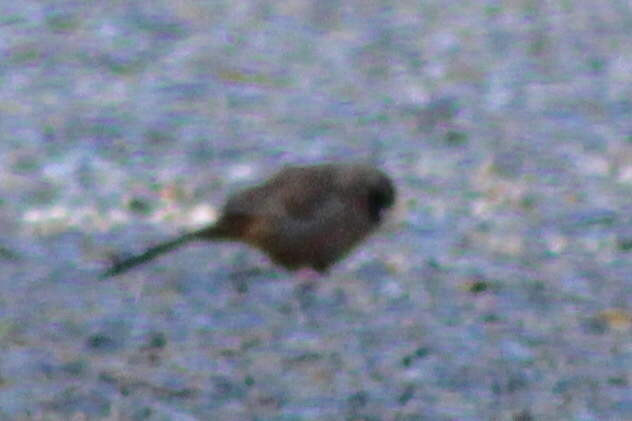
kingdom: Animalia
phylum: Chordata
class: Aves
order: Passeriformes
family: Passerellidae
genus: Melozone
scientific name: Melozone aberti
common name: Abert's towhee
